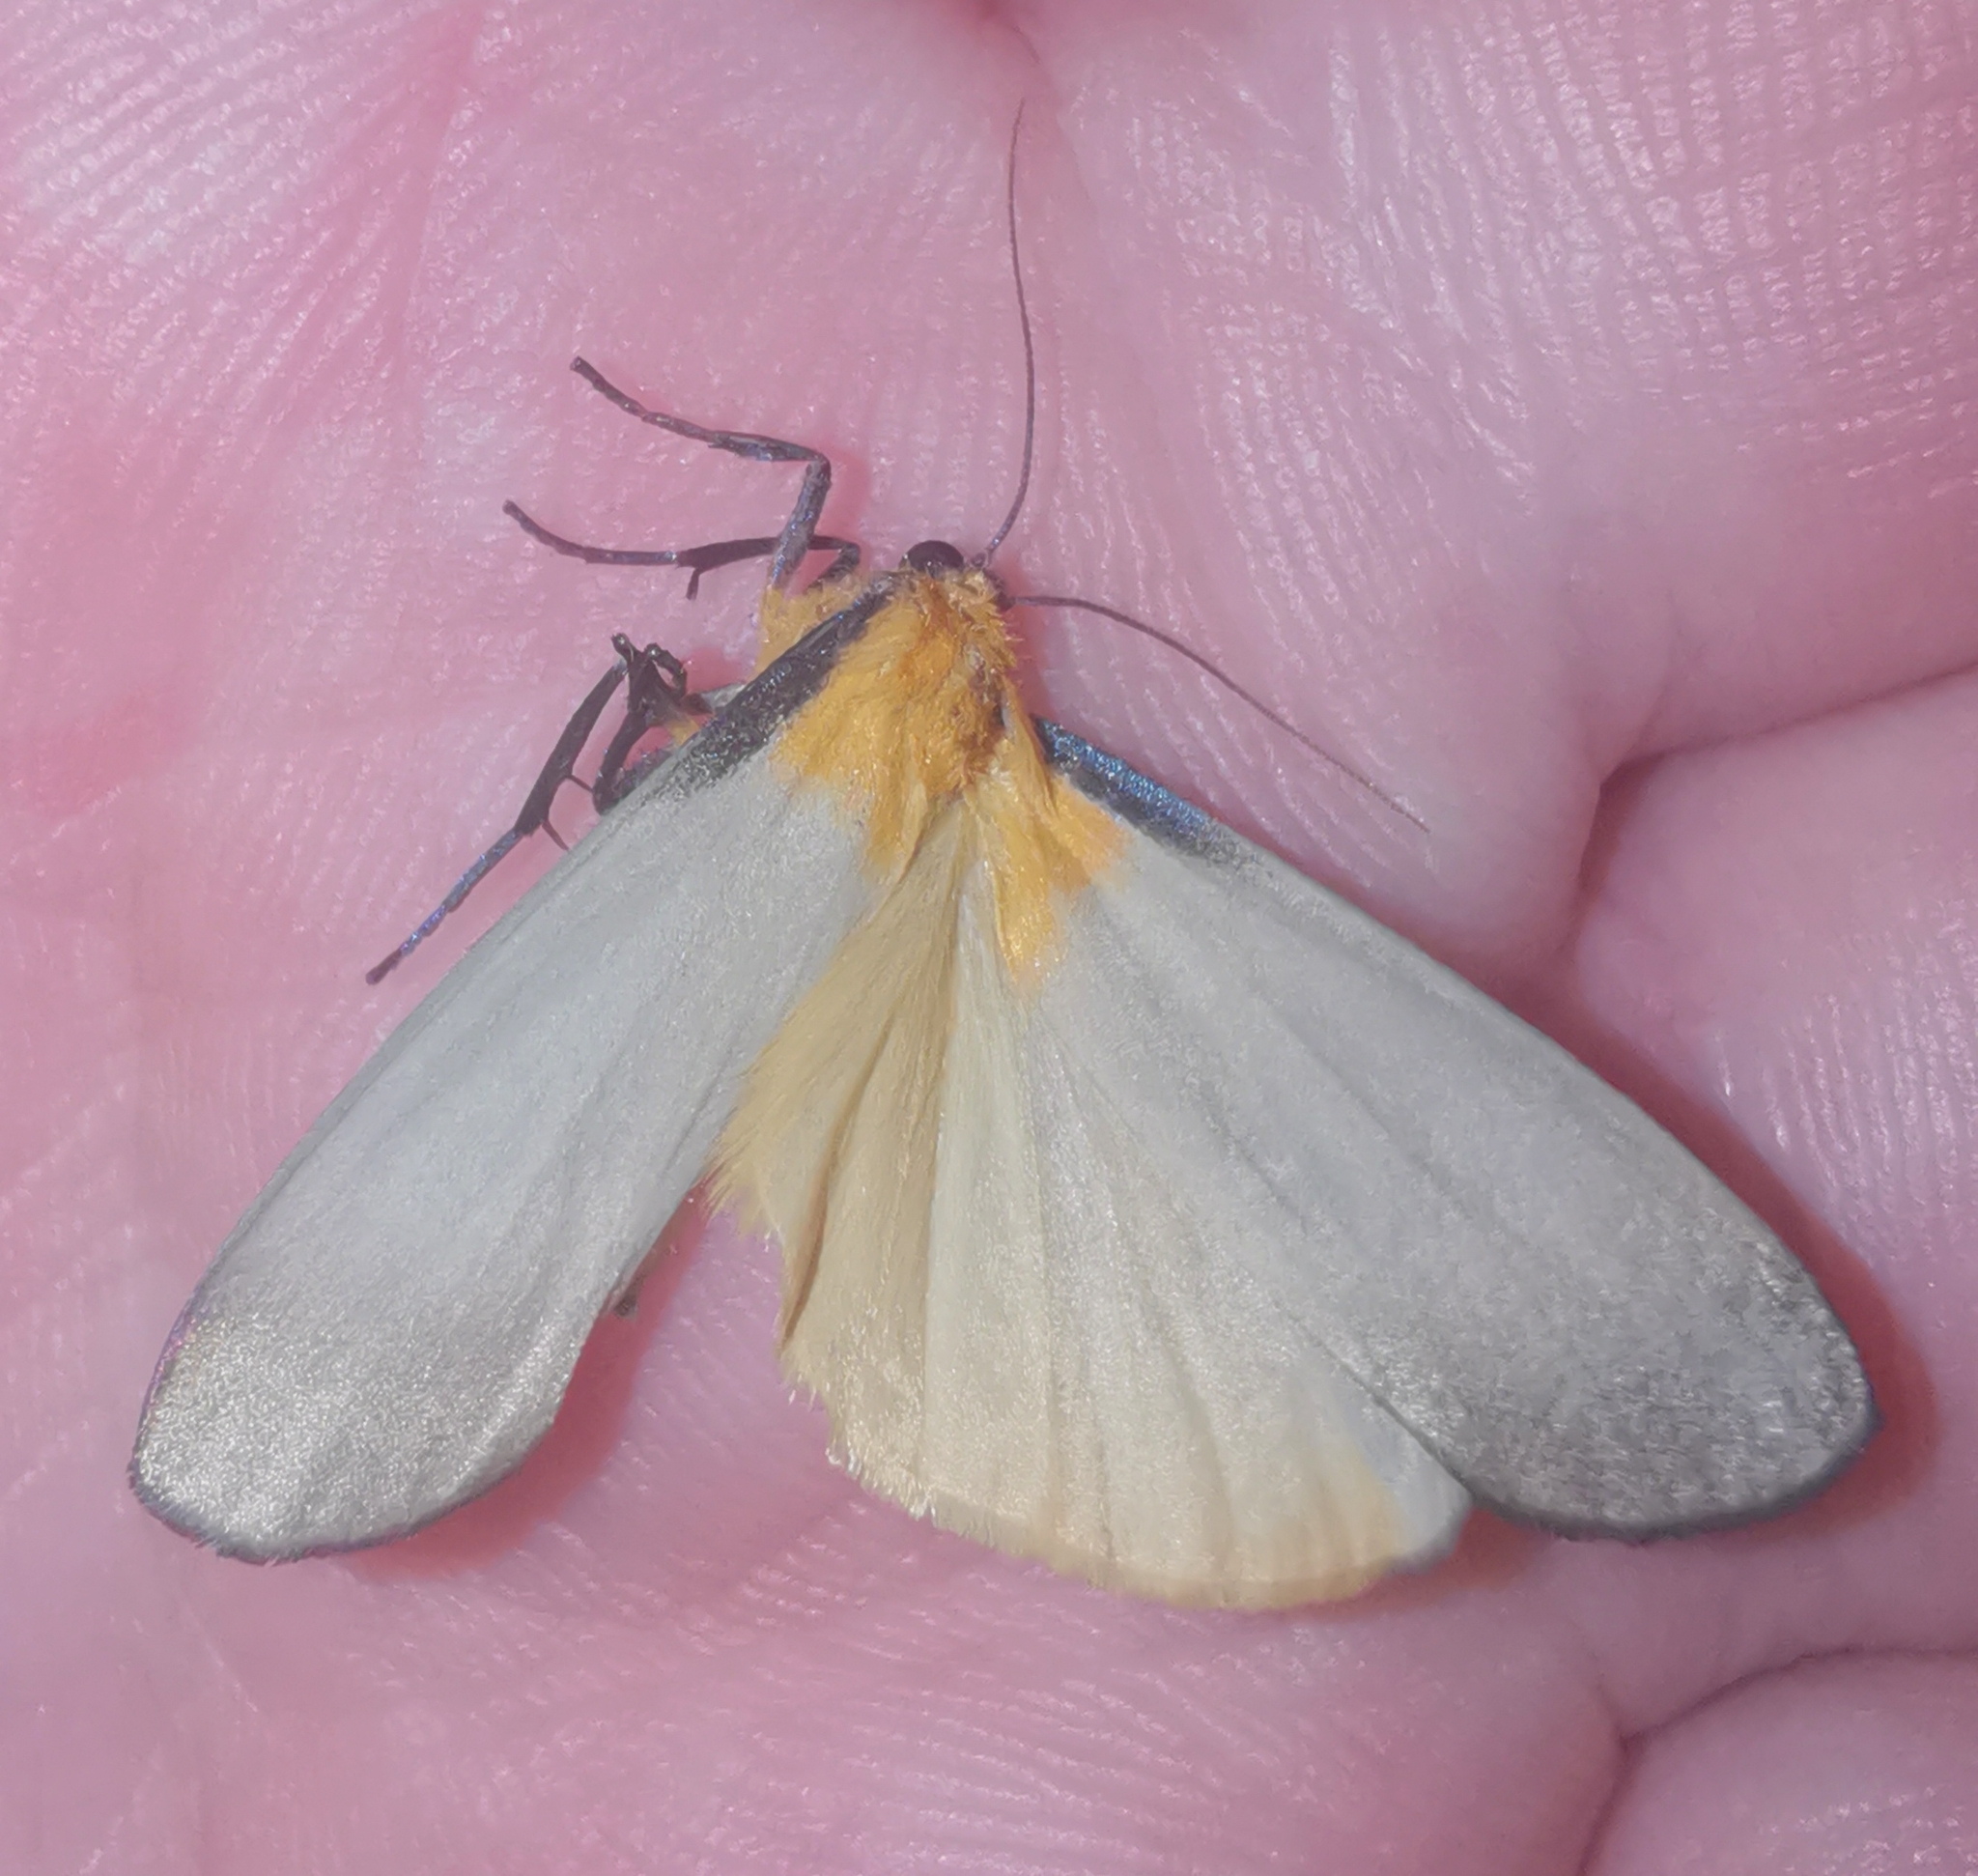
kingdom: Animalia
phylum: Arthropoda
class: Insecta
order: Lepidoptera
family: Erebidae
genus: Lithosia
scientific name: Lithosia quadra
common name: Four-spotted footman
